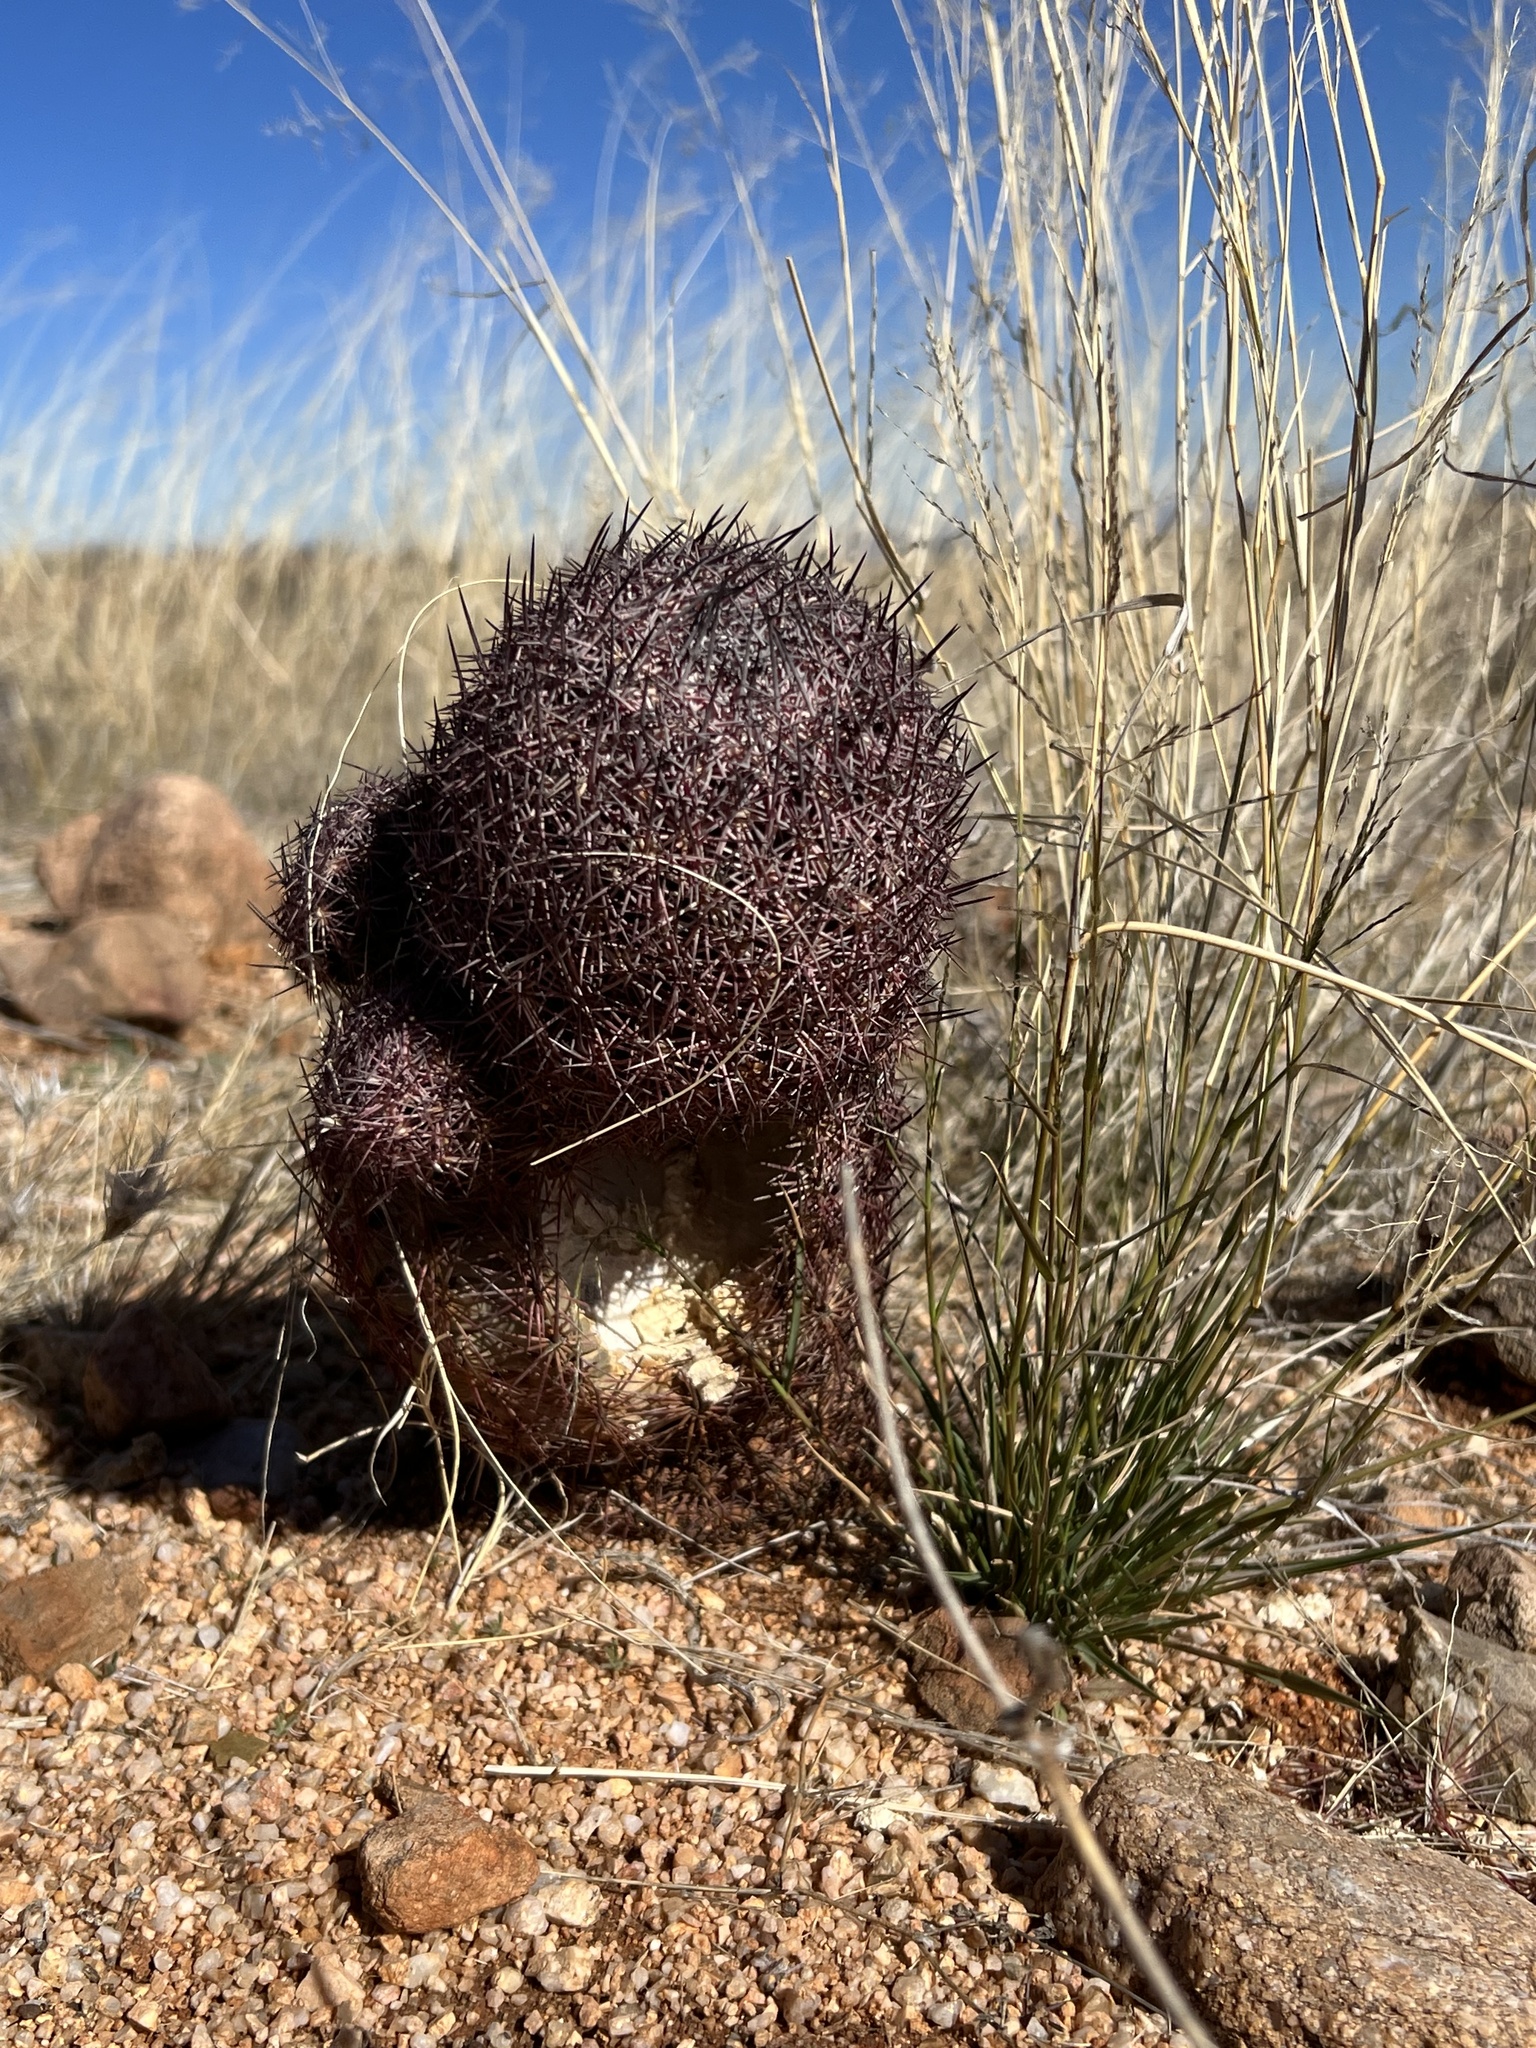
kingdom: Plantae
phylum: Tracheophyta
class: Magnoliopsida
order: Caryophyllales
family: Cactaceae
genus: Sclerocactus
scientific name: Sclerocactus johnsonii
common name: Eight-spine fishhook cactus
